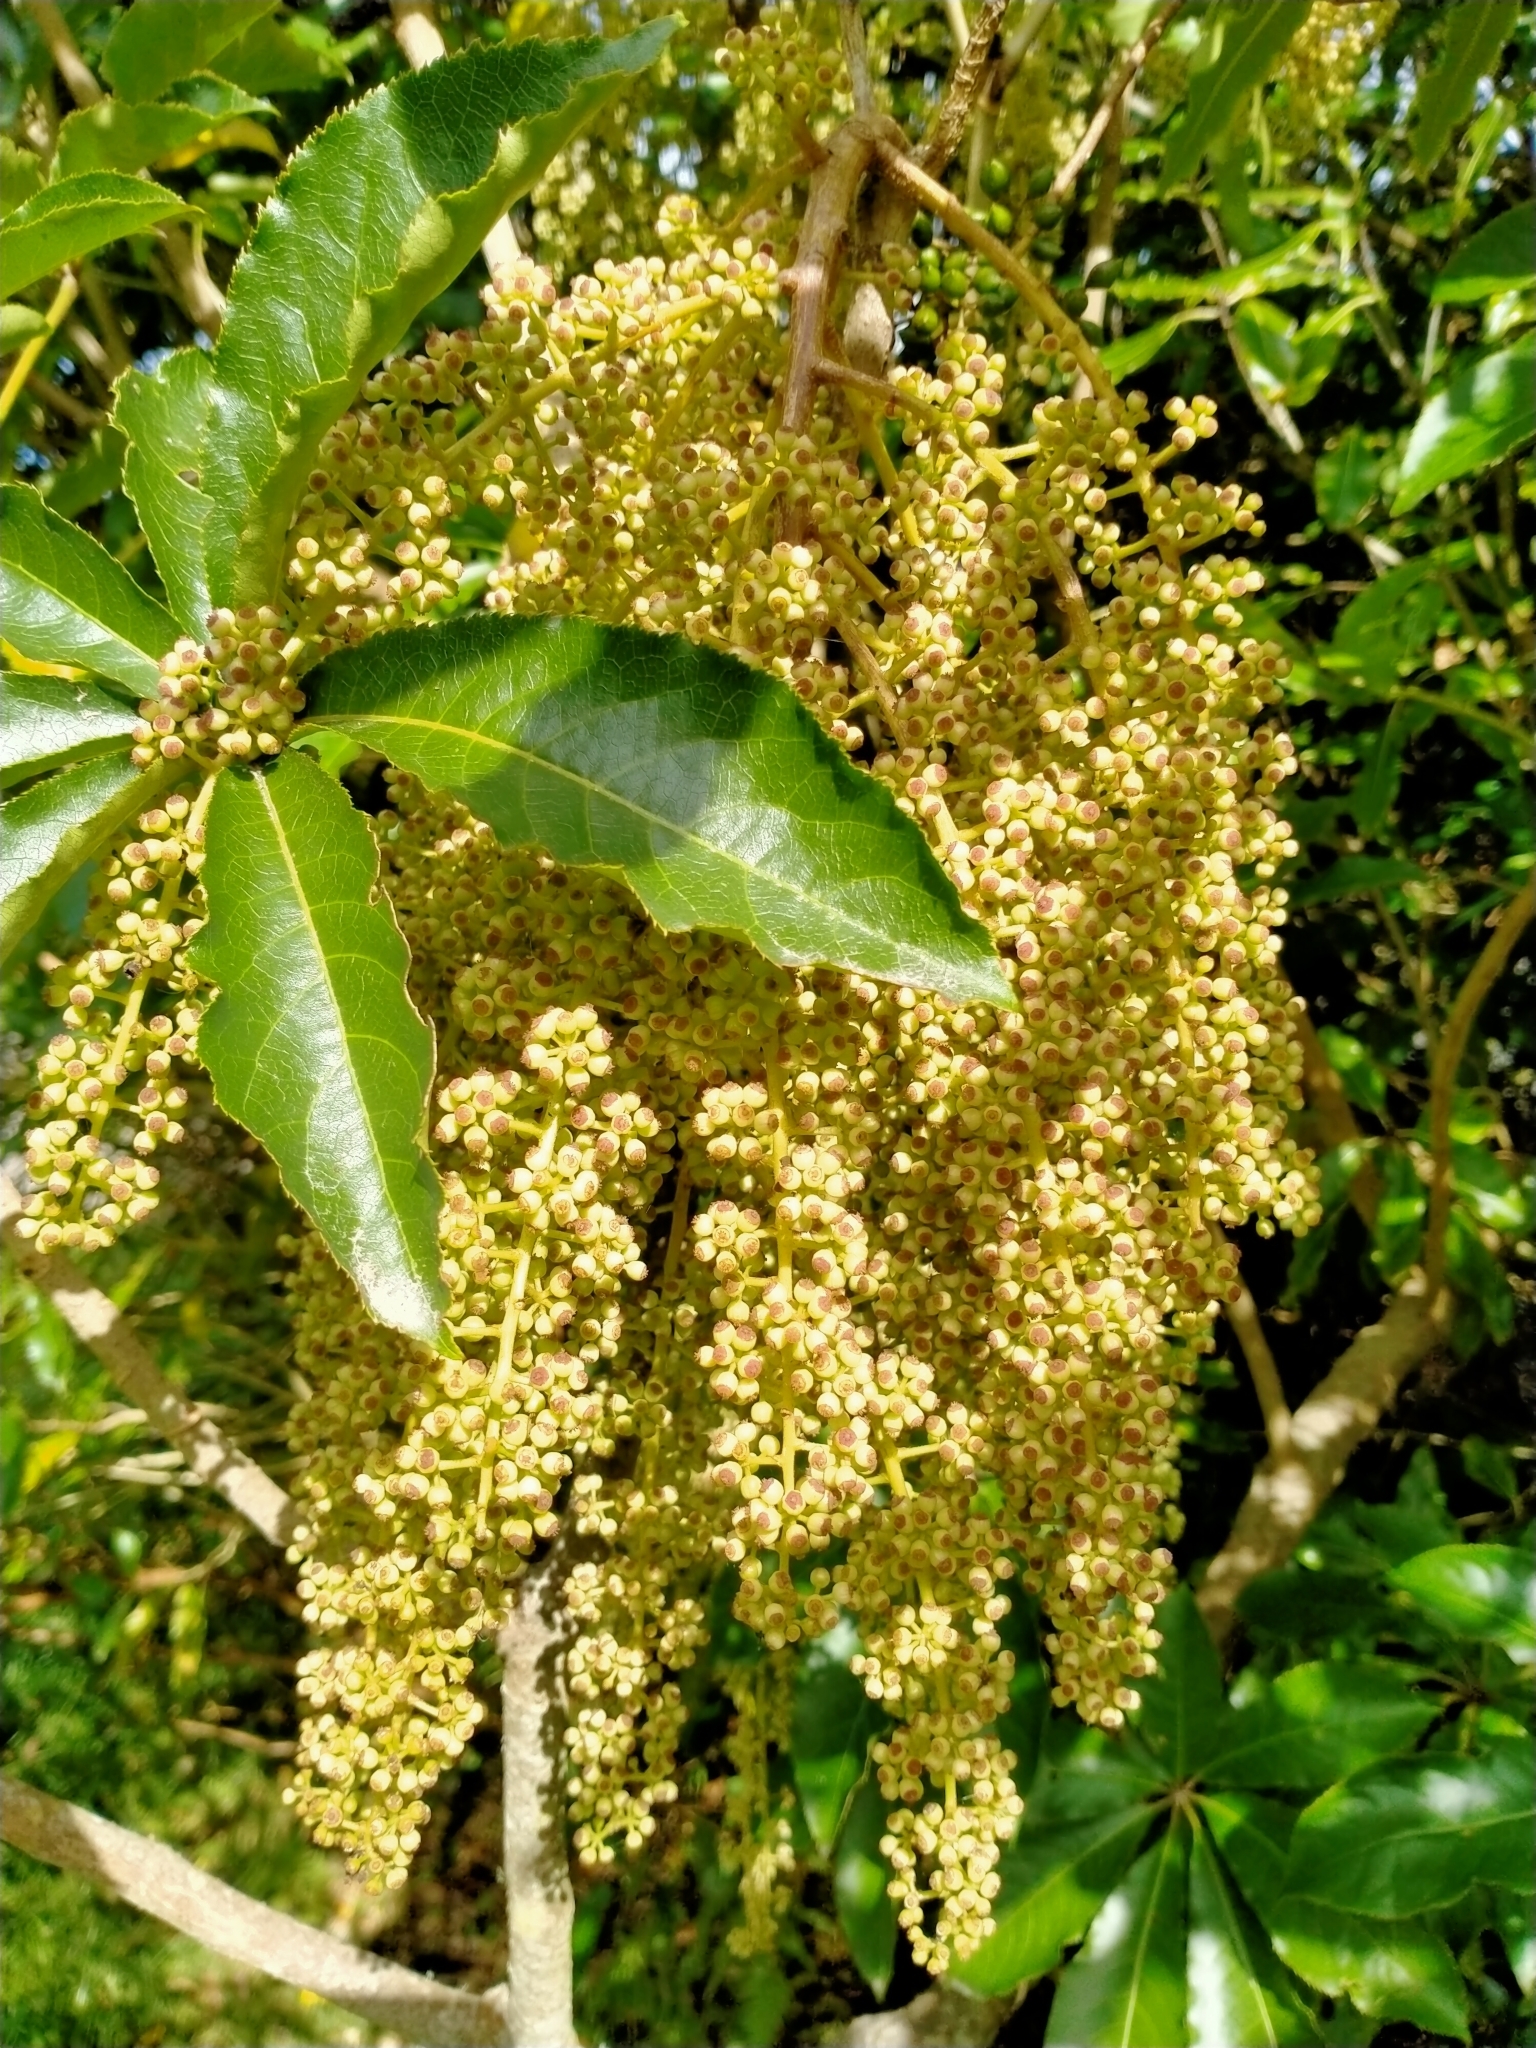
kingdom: Plantae
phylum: Tracheophyta
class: Magnoliopsida
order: Apiales
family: Araliaceae
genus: Schefflera
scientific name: Schefflera digitata
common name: Pate
